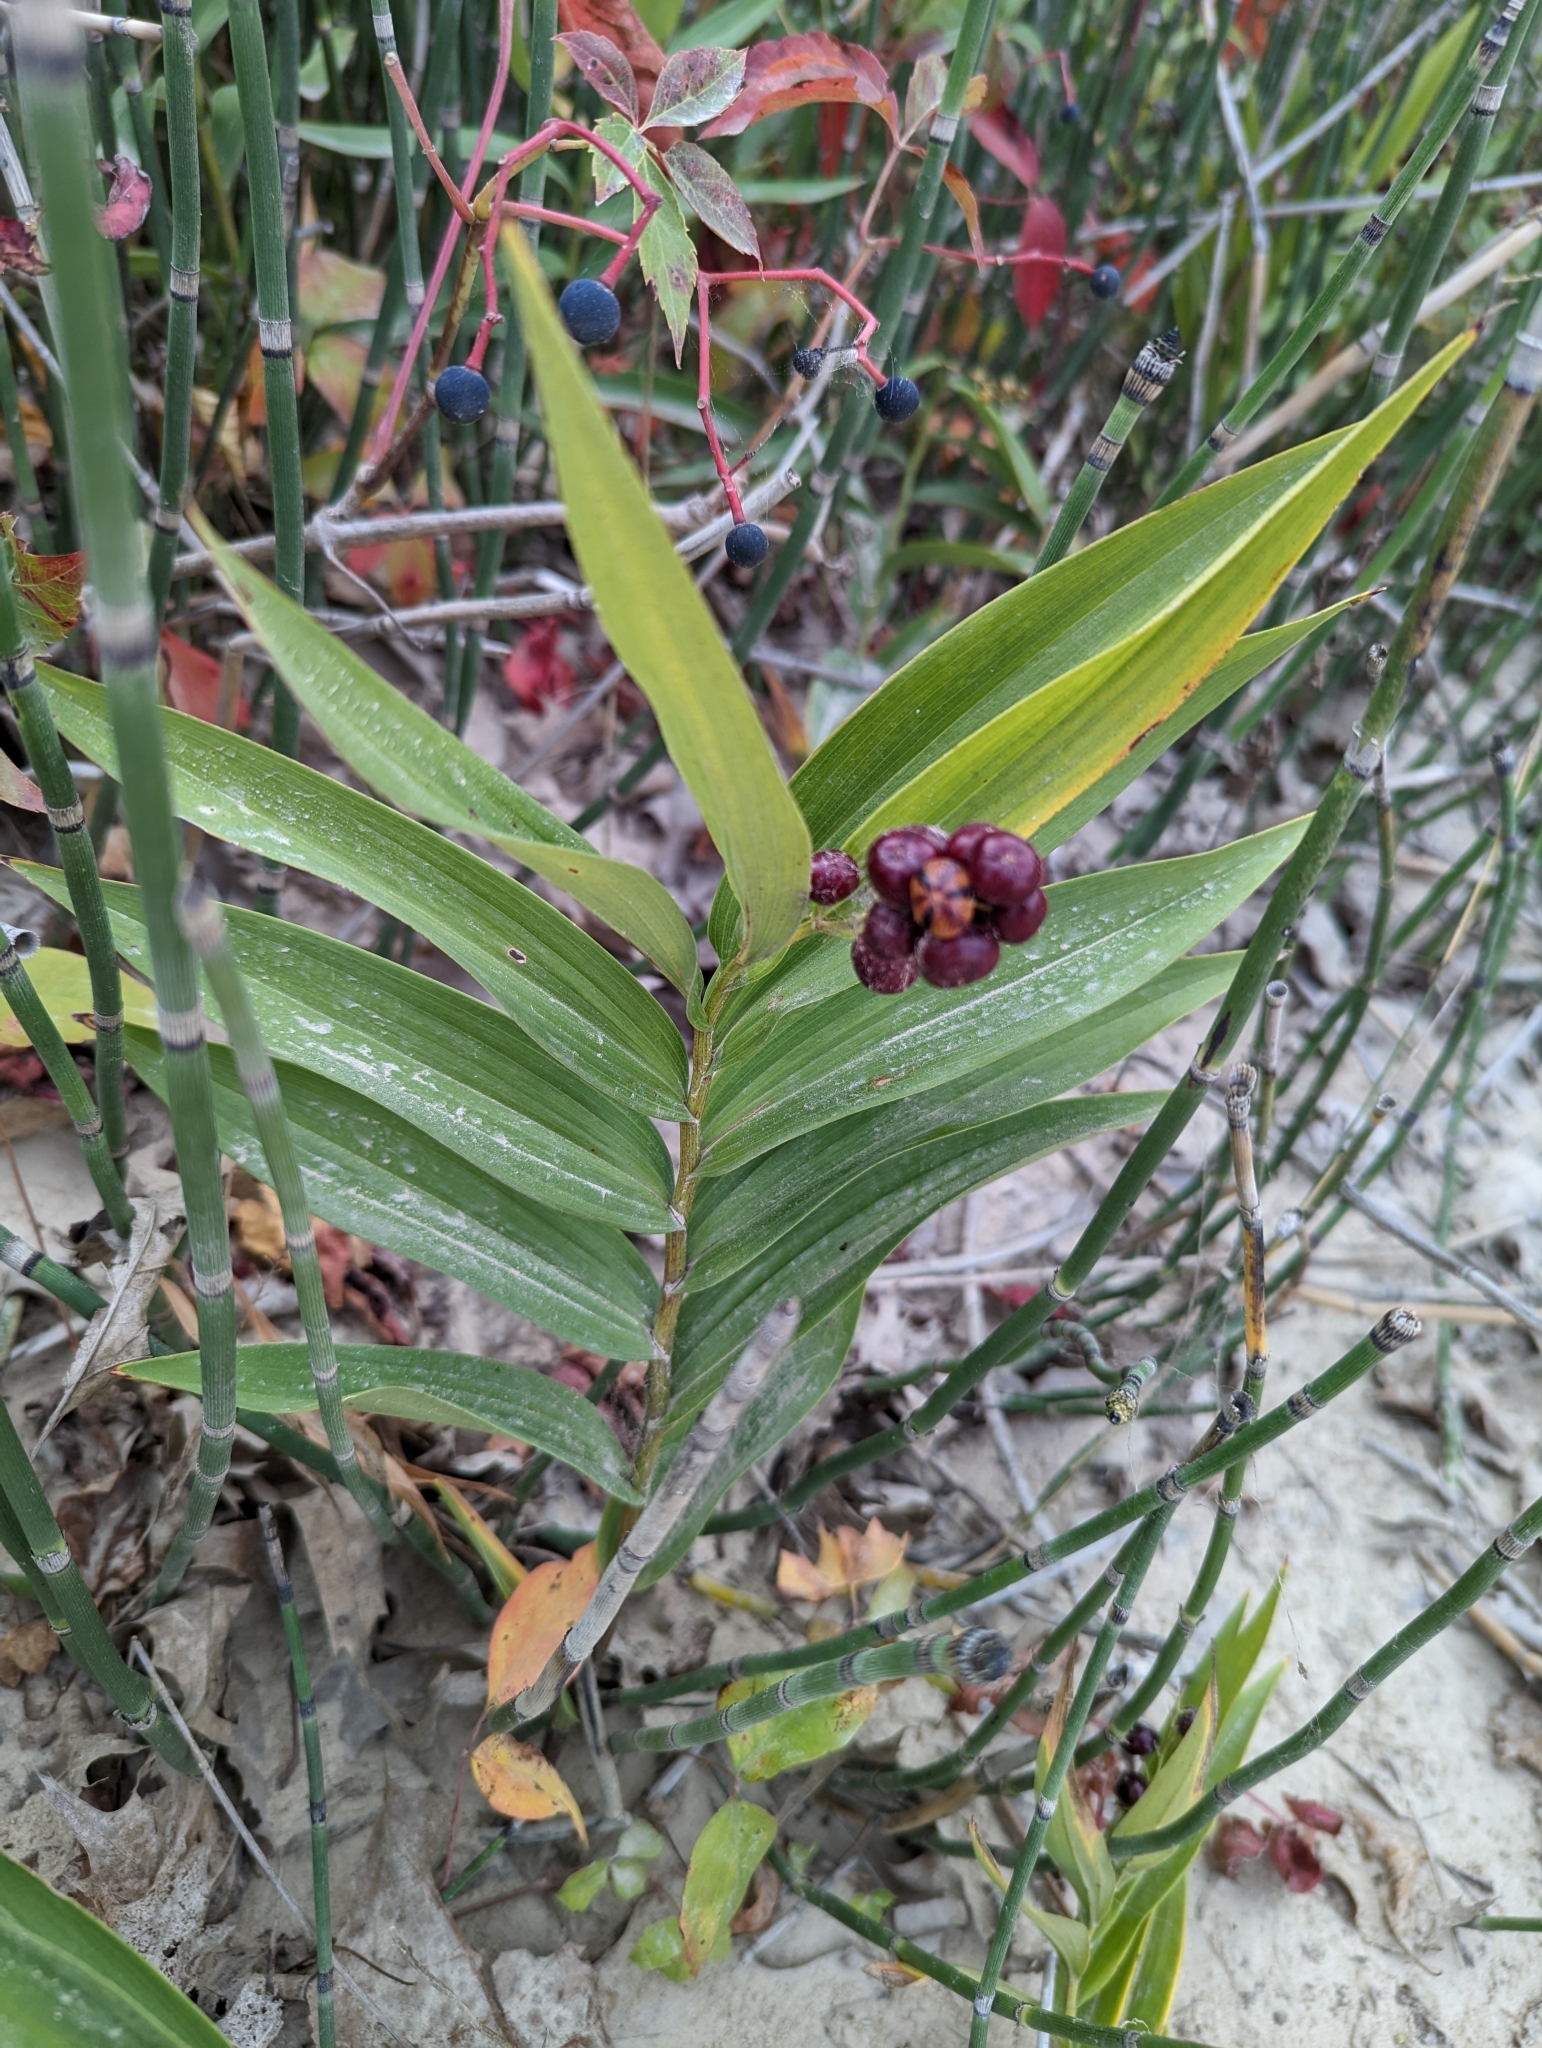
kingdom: Plantae
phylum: Tracheophyta
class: Liliopsida
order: Asparagales
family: Asparagaceae
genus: Maianthemum
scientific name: Maianthemum stellatum
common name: Little false solomon's seal
